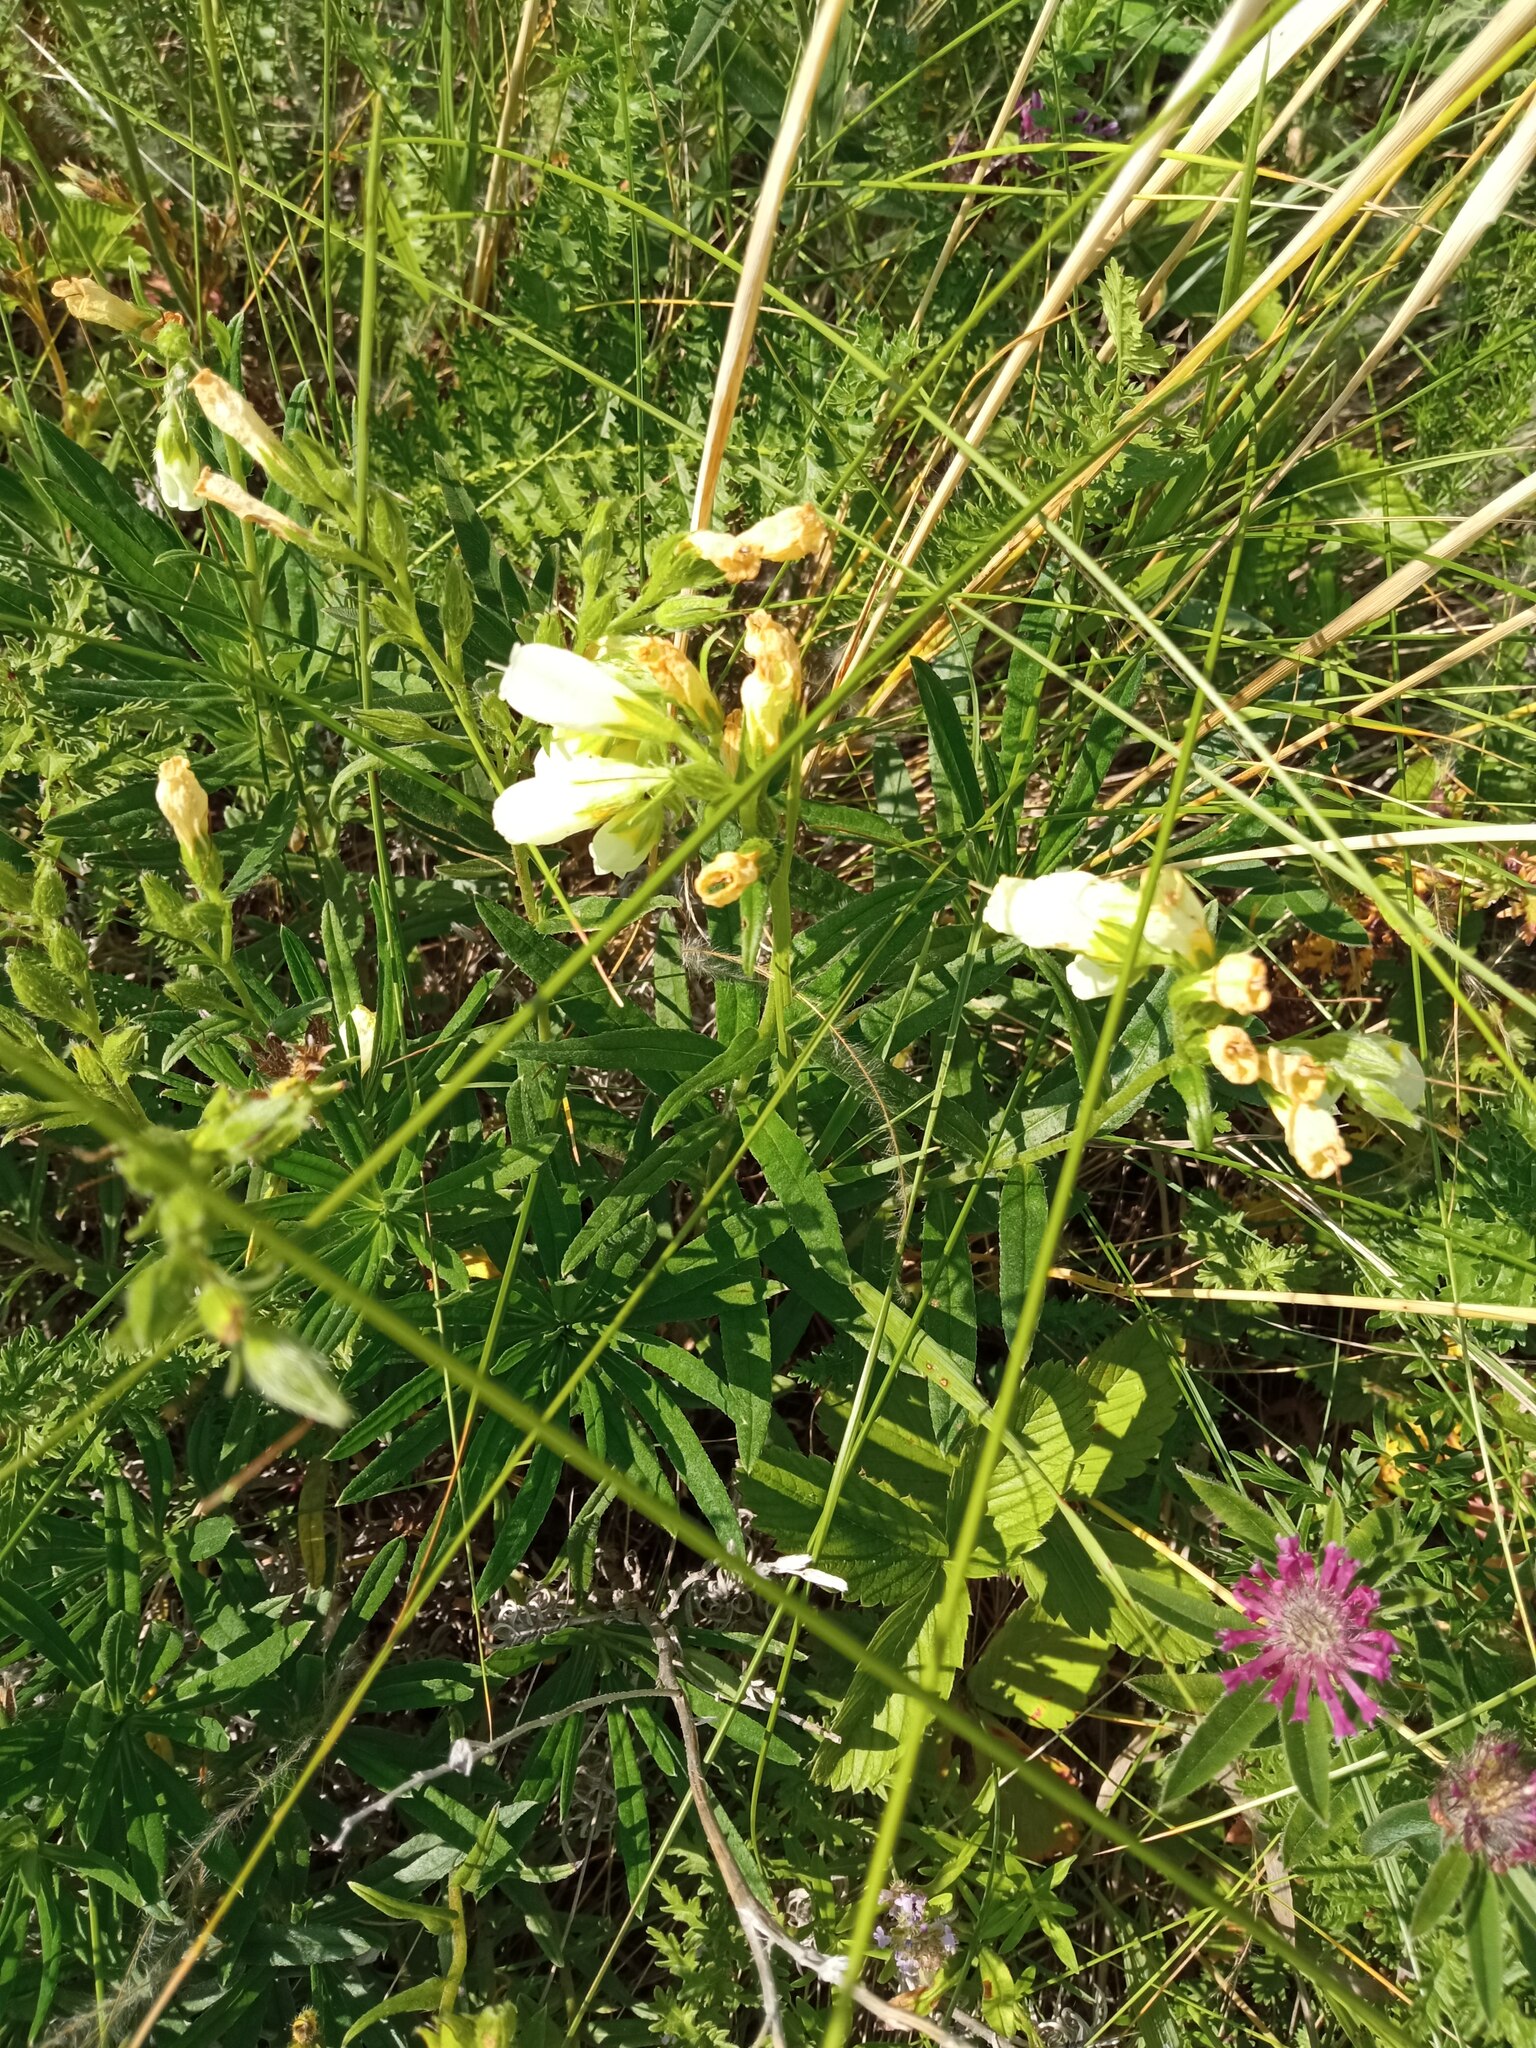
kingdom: Plantae
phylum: Tracheophyta
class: Magnoliopsida
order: Boraginales
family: Boraginaceae
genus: Onosma
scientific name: Onosma simplicissima
